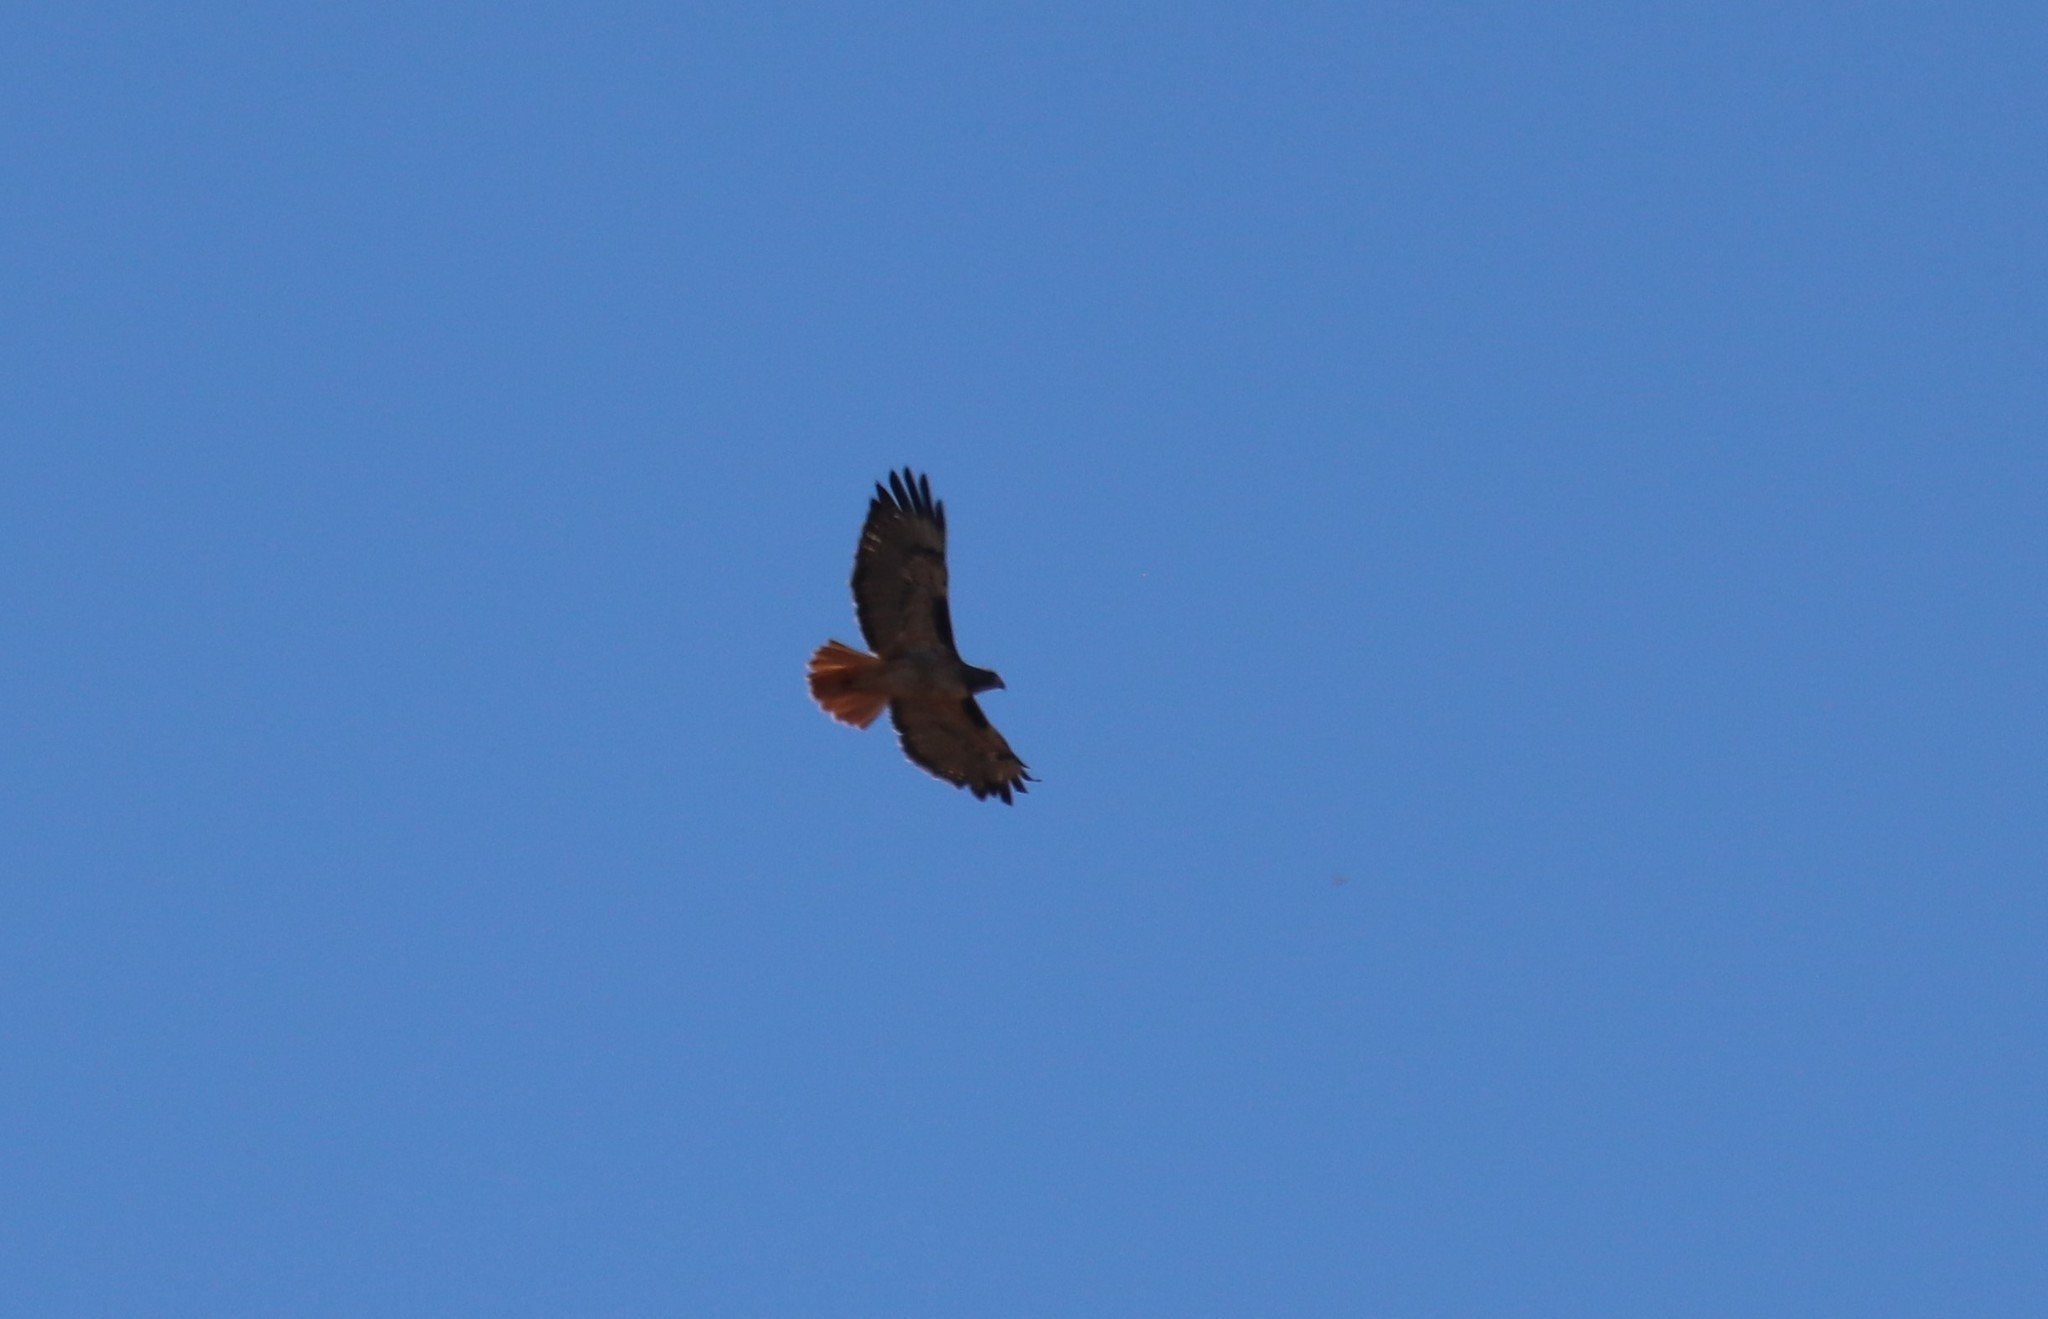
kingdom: Animalia
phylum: Chordata
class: Aves
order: Accipitriformes
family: Accipitridae
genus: Buteo
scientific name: Buteo jamaicensis
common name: Red-tailed hawk
